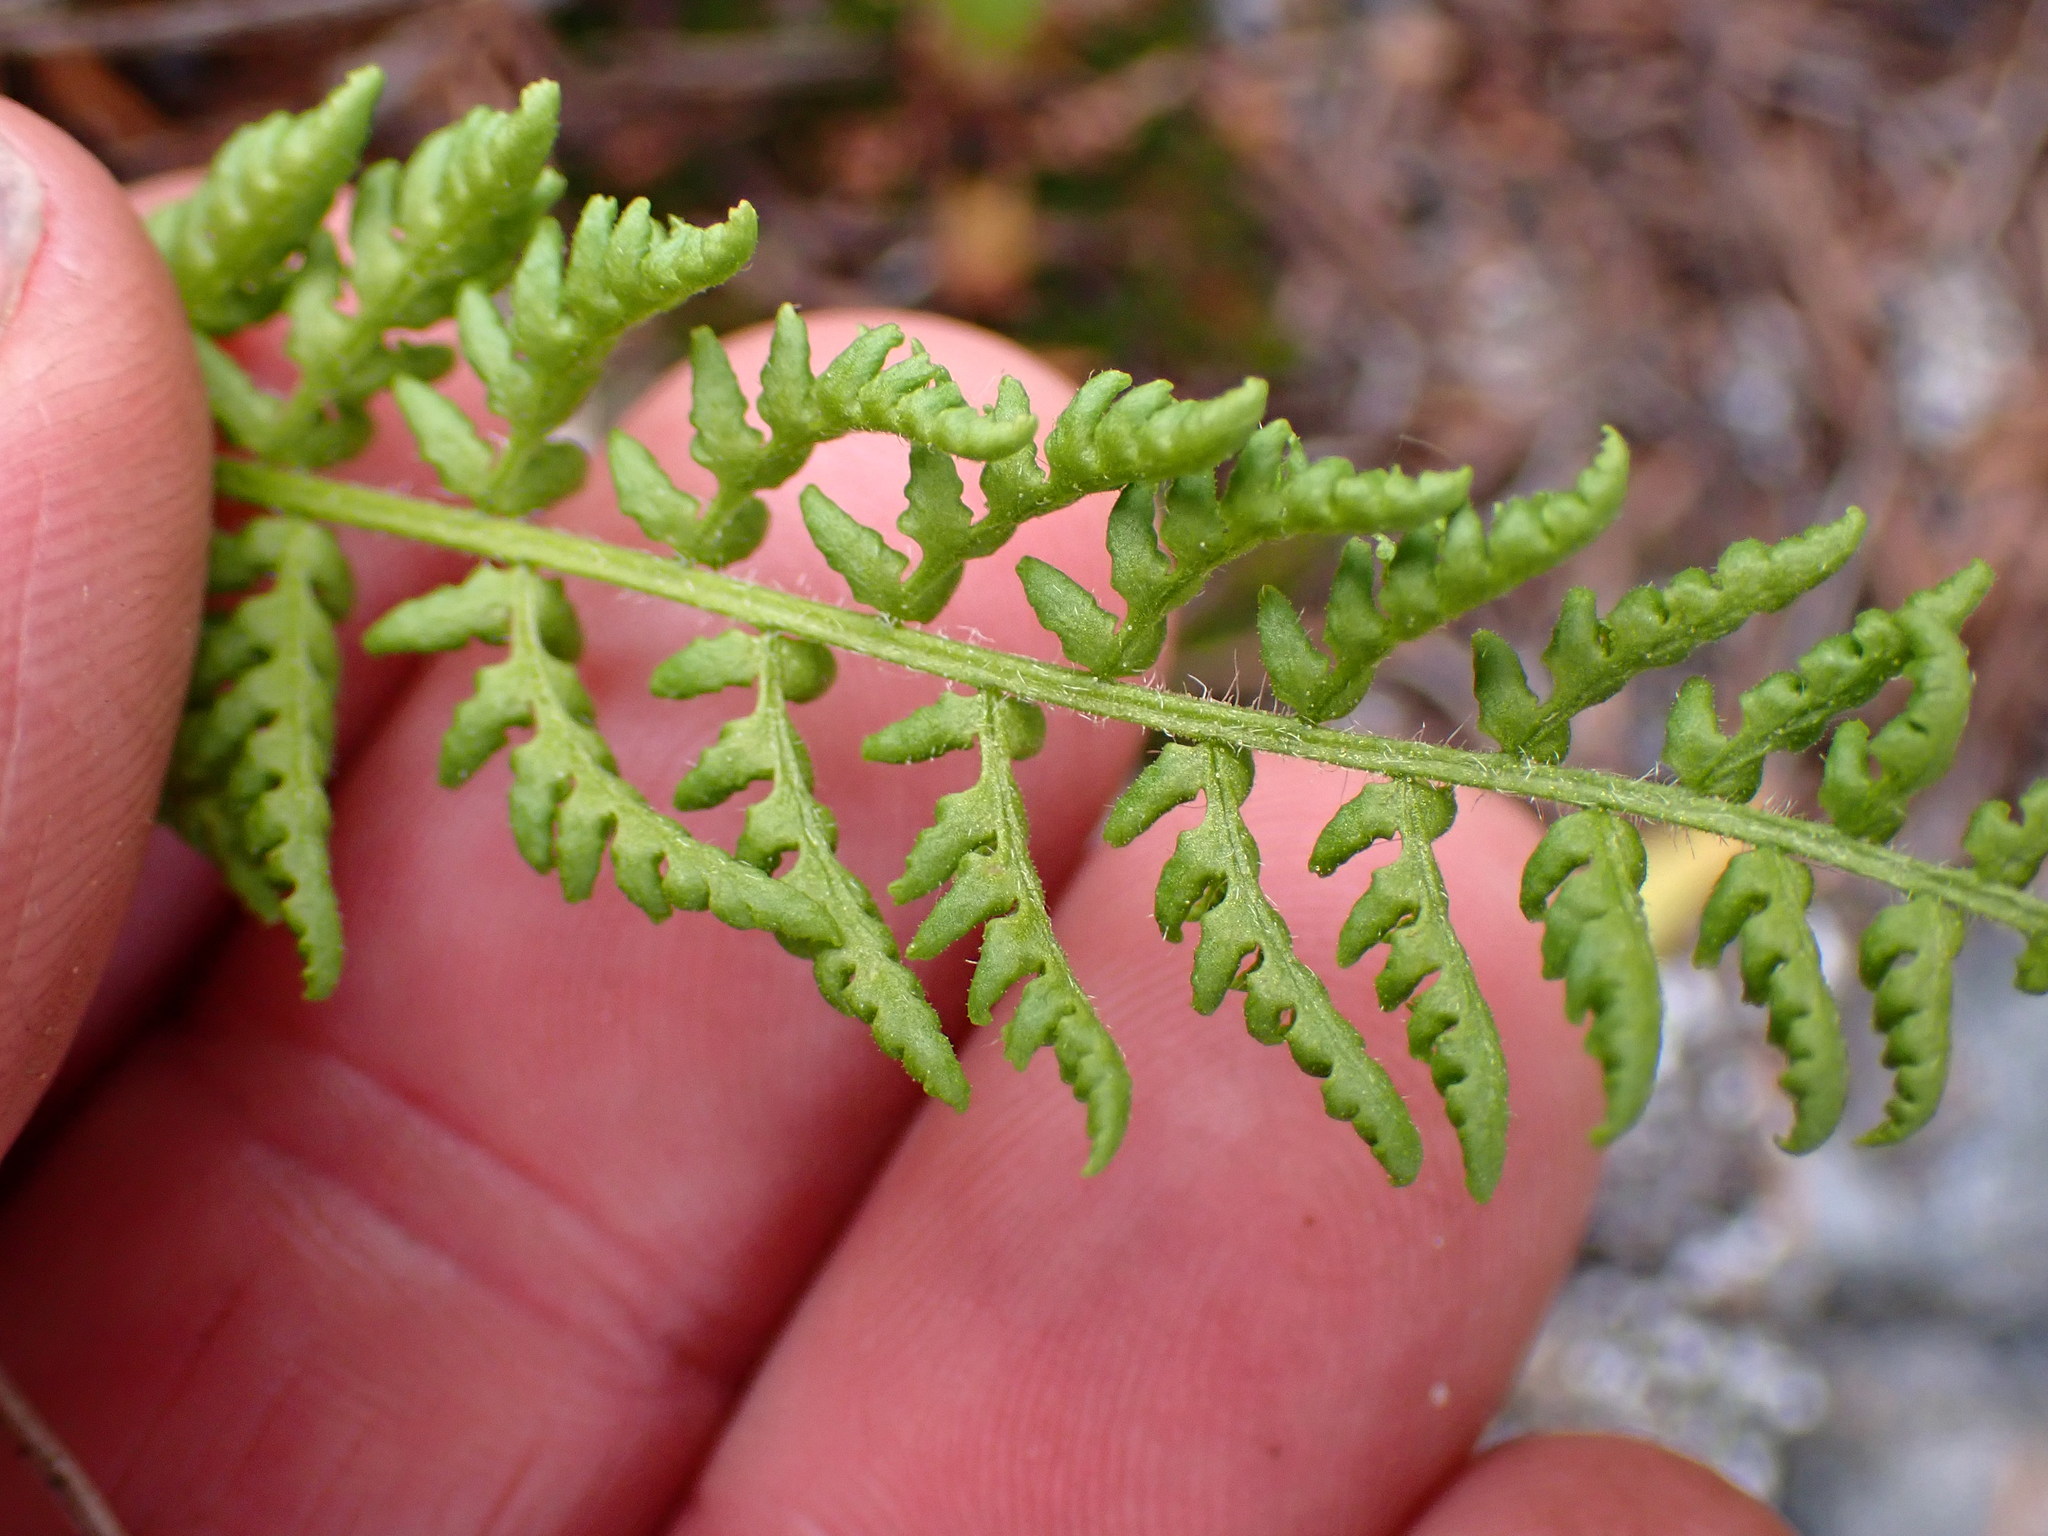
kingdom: Plantae
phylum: Tracheophyta
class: Polypodiopsida
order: Polypodiales
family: Woodsiaceae
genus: Physematium
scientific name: Physematium scopulinum
